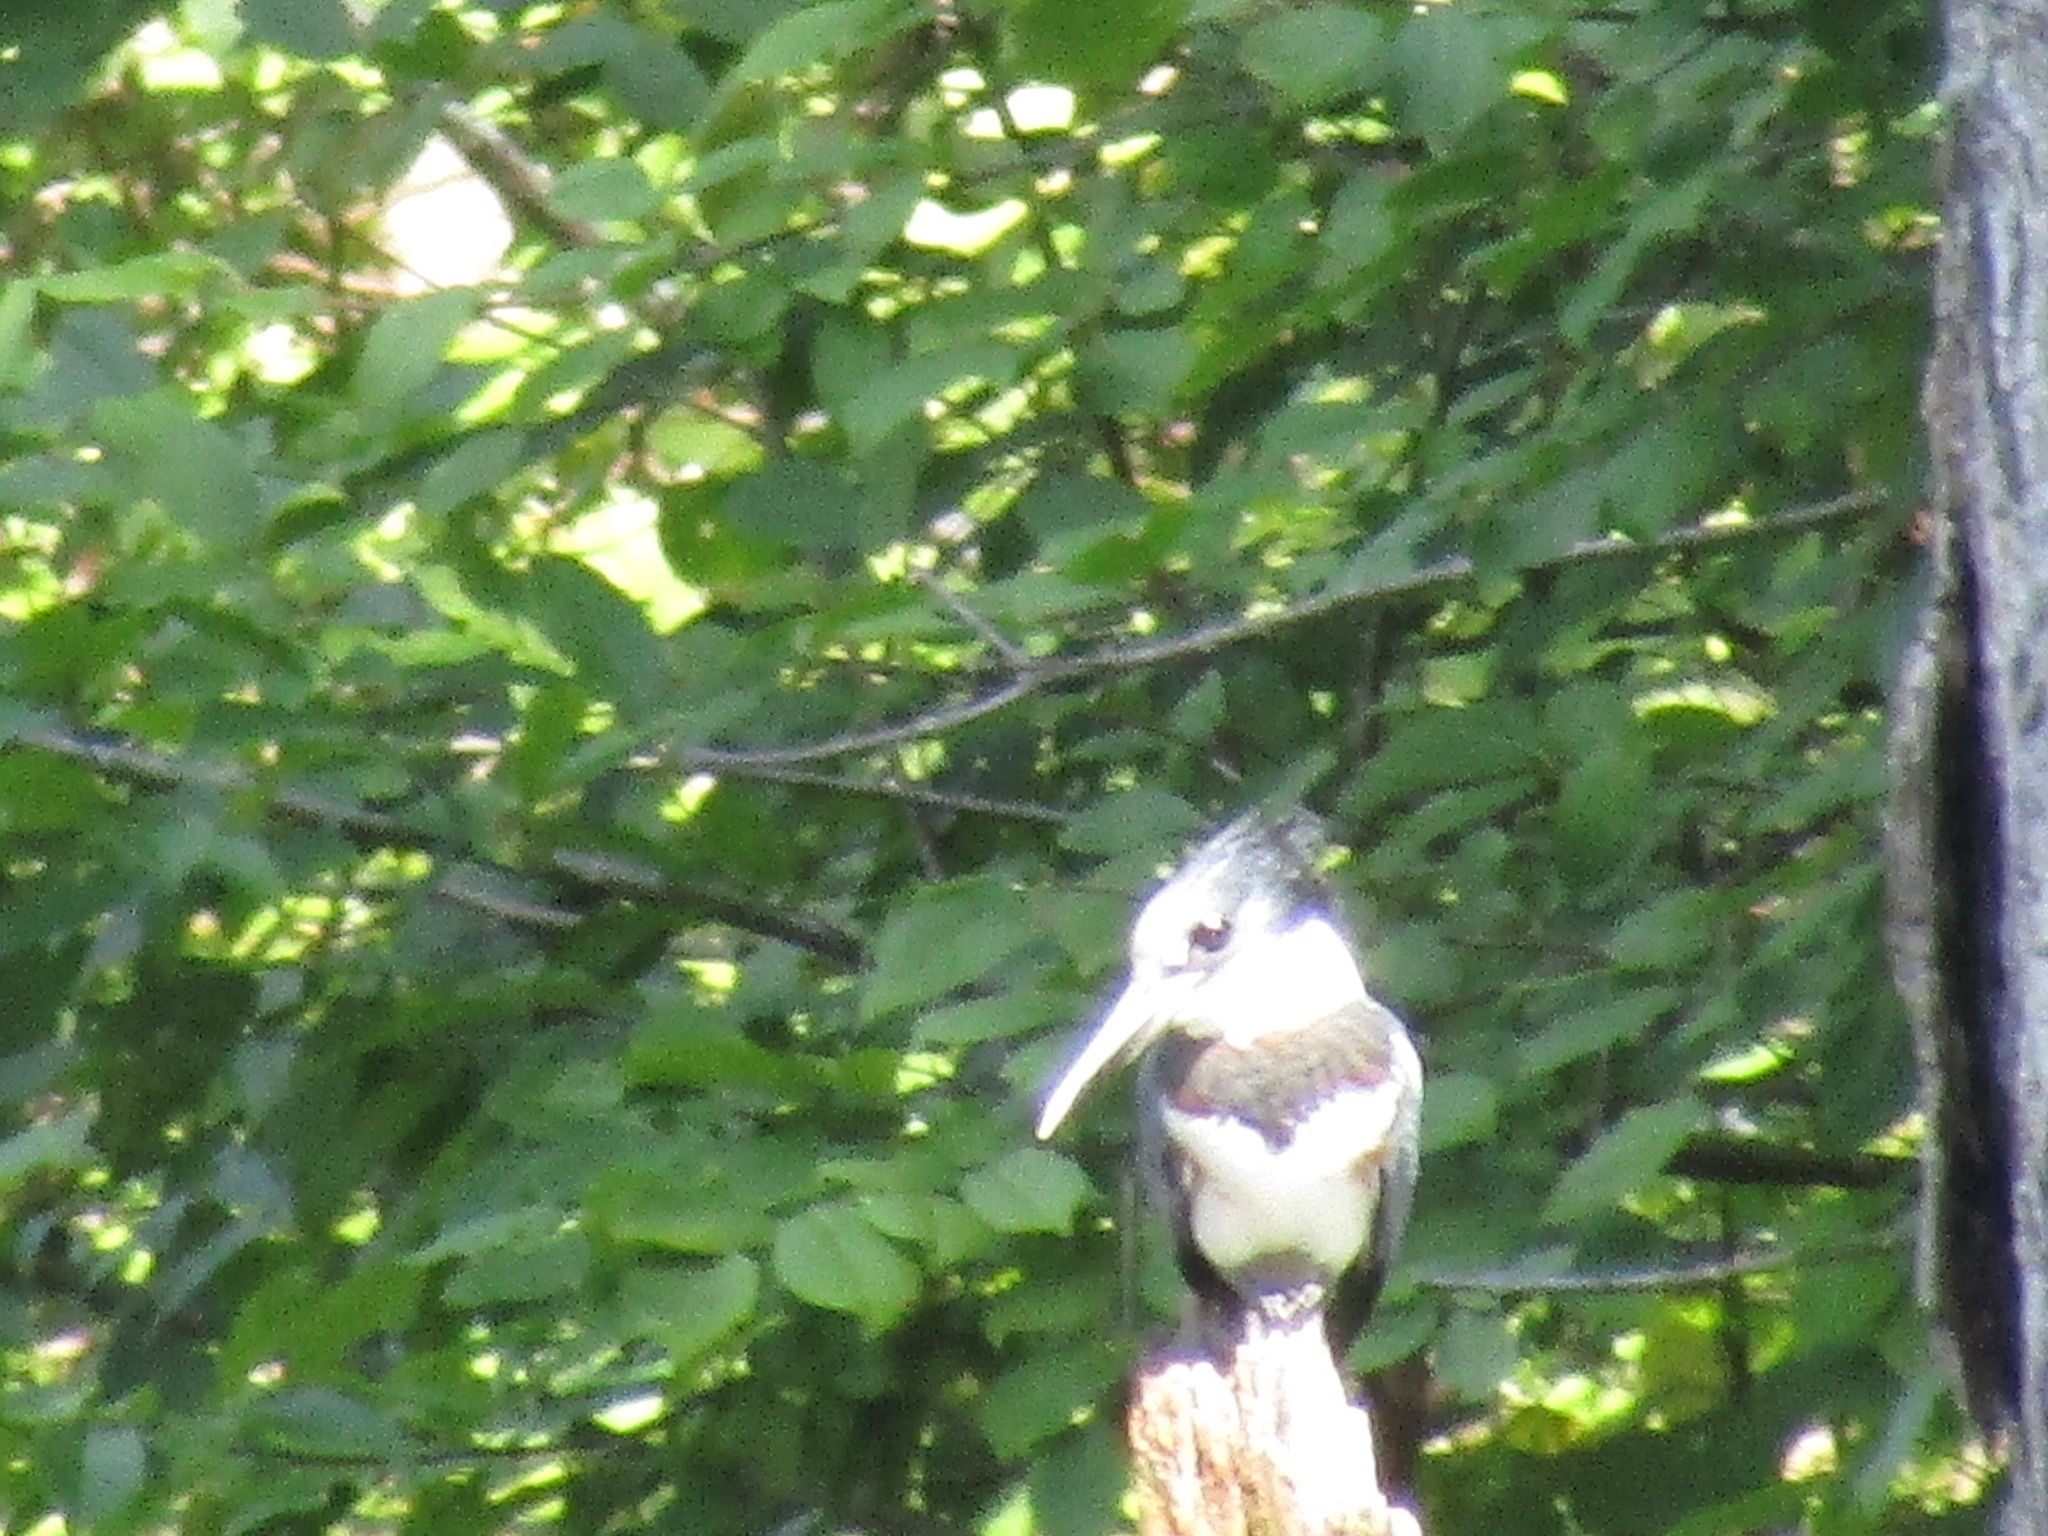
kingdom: Animalia
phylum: Chordata
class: Aves
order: Coraciiformes
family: Alcedinidae
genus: Megaceryle
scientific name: Megaceryle alcyon
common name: Belted kingfisher
